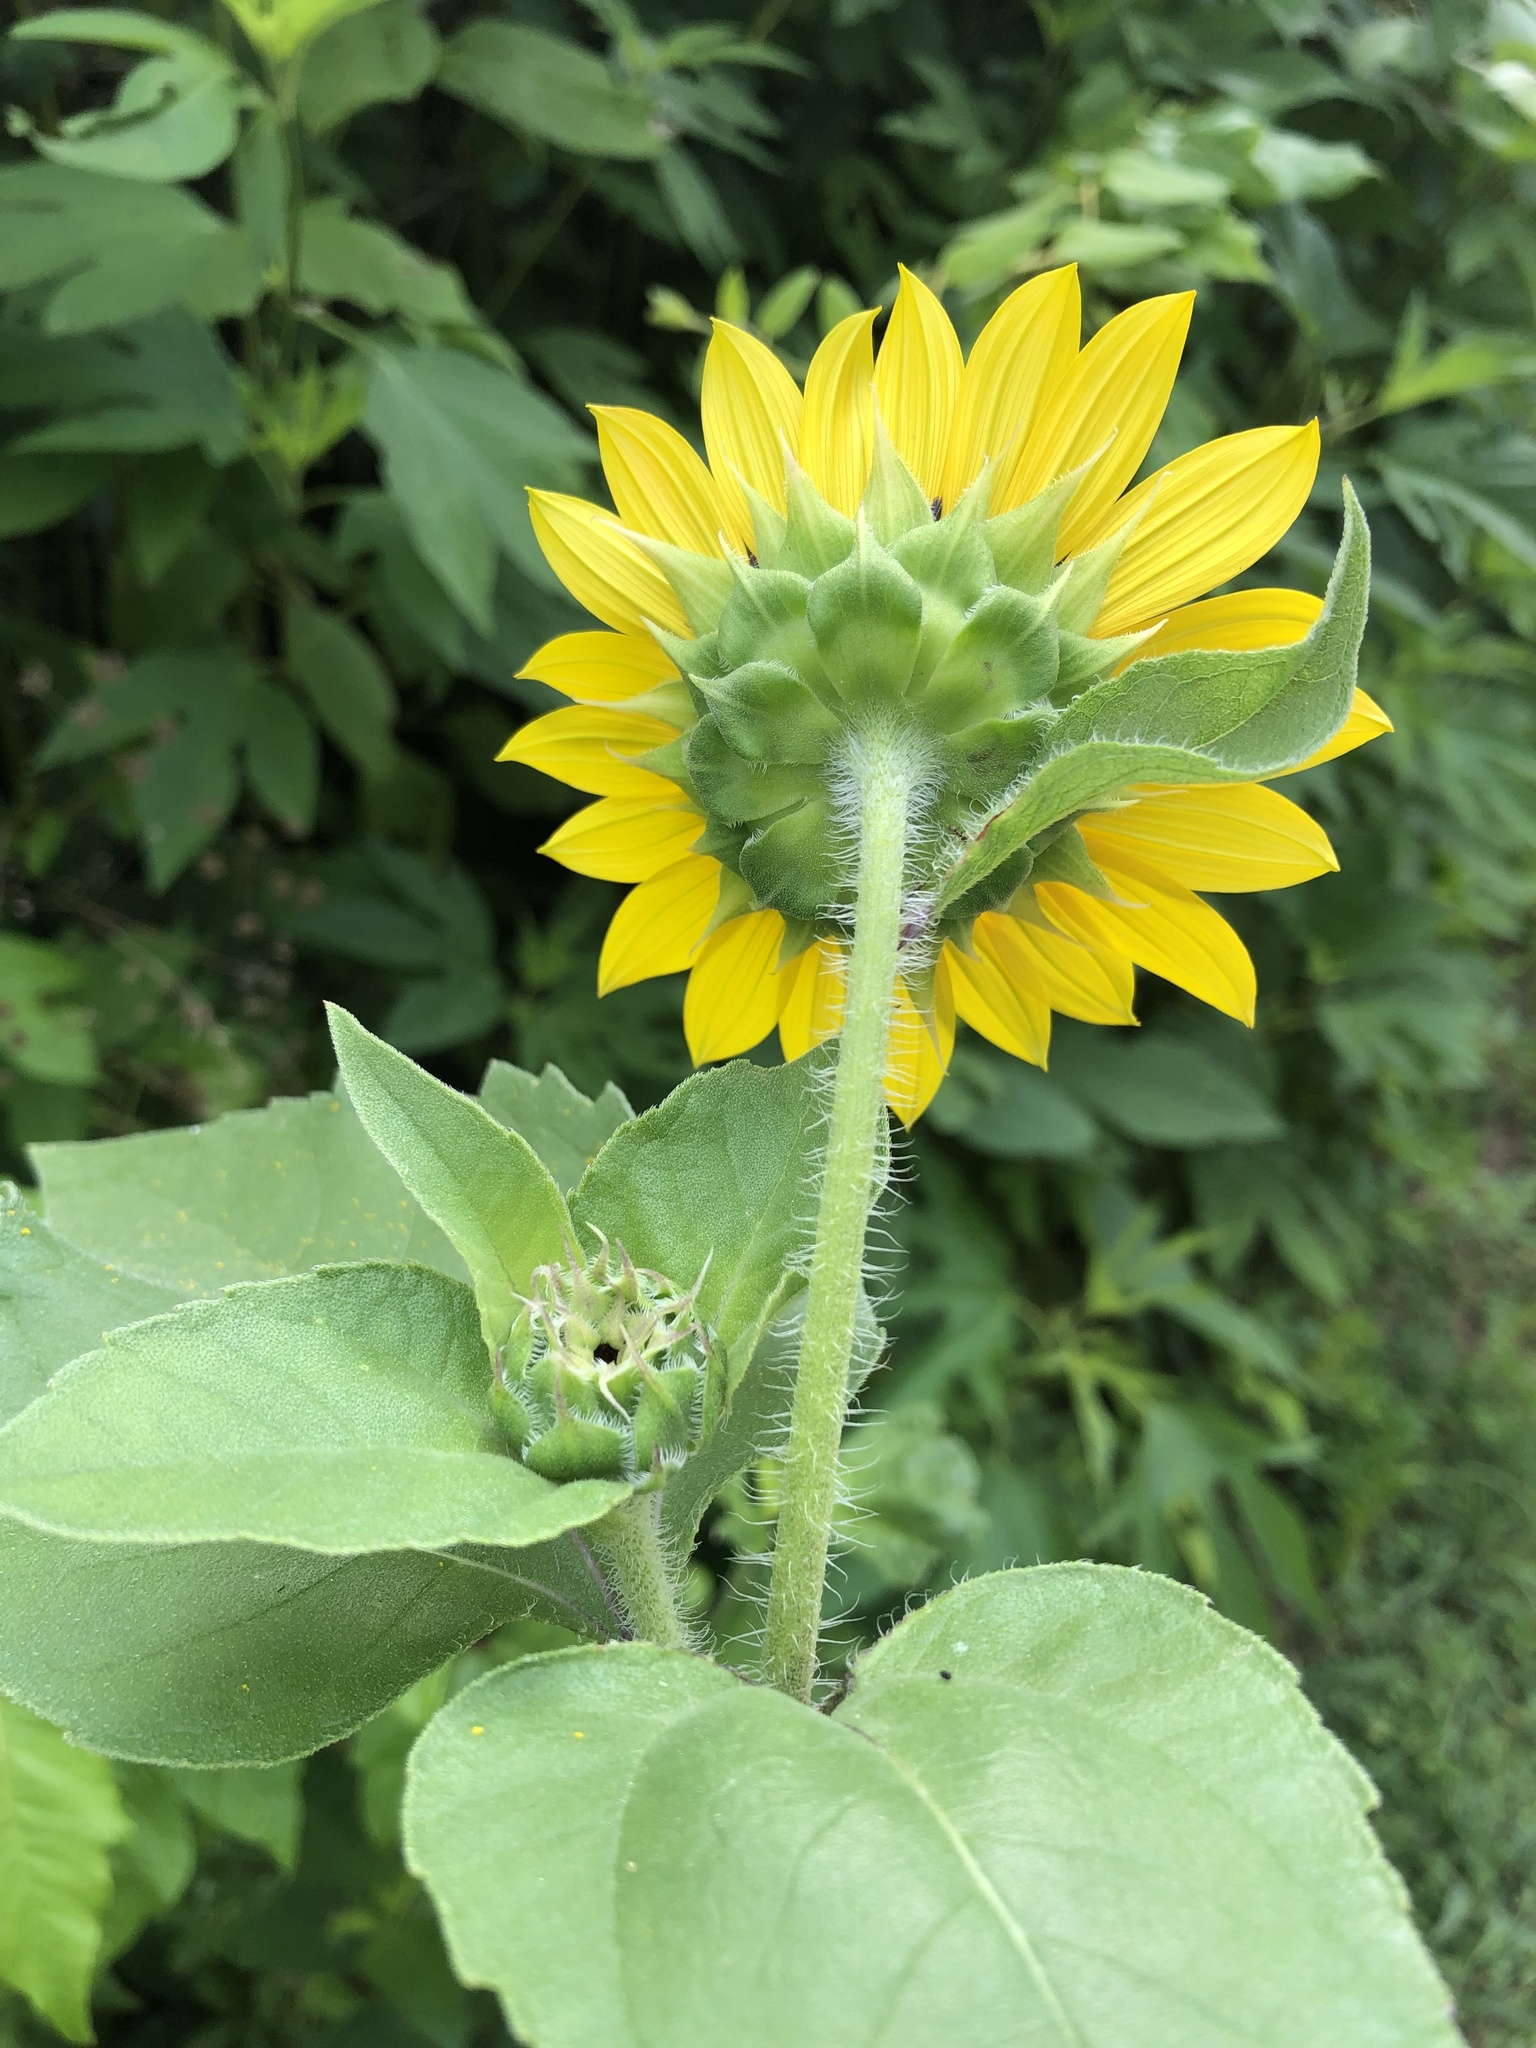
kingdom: Plantae
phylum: Tracheophyta
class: Magnoliopsida
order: Asterales
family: Asteraceae
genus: Helianthus
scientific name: Helianthus annuus
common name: Sunflower
